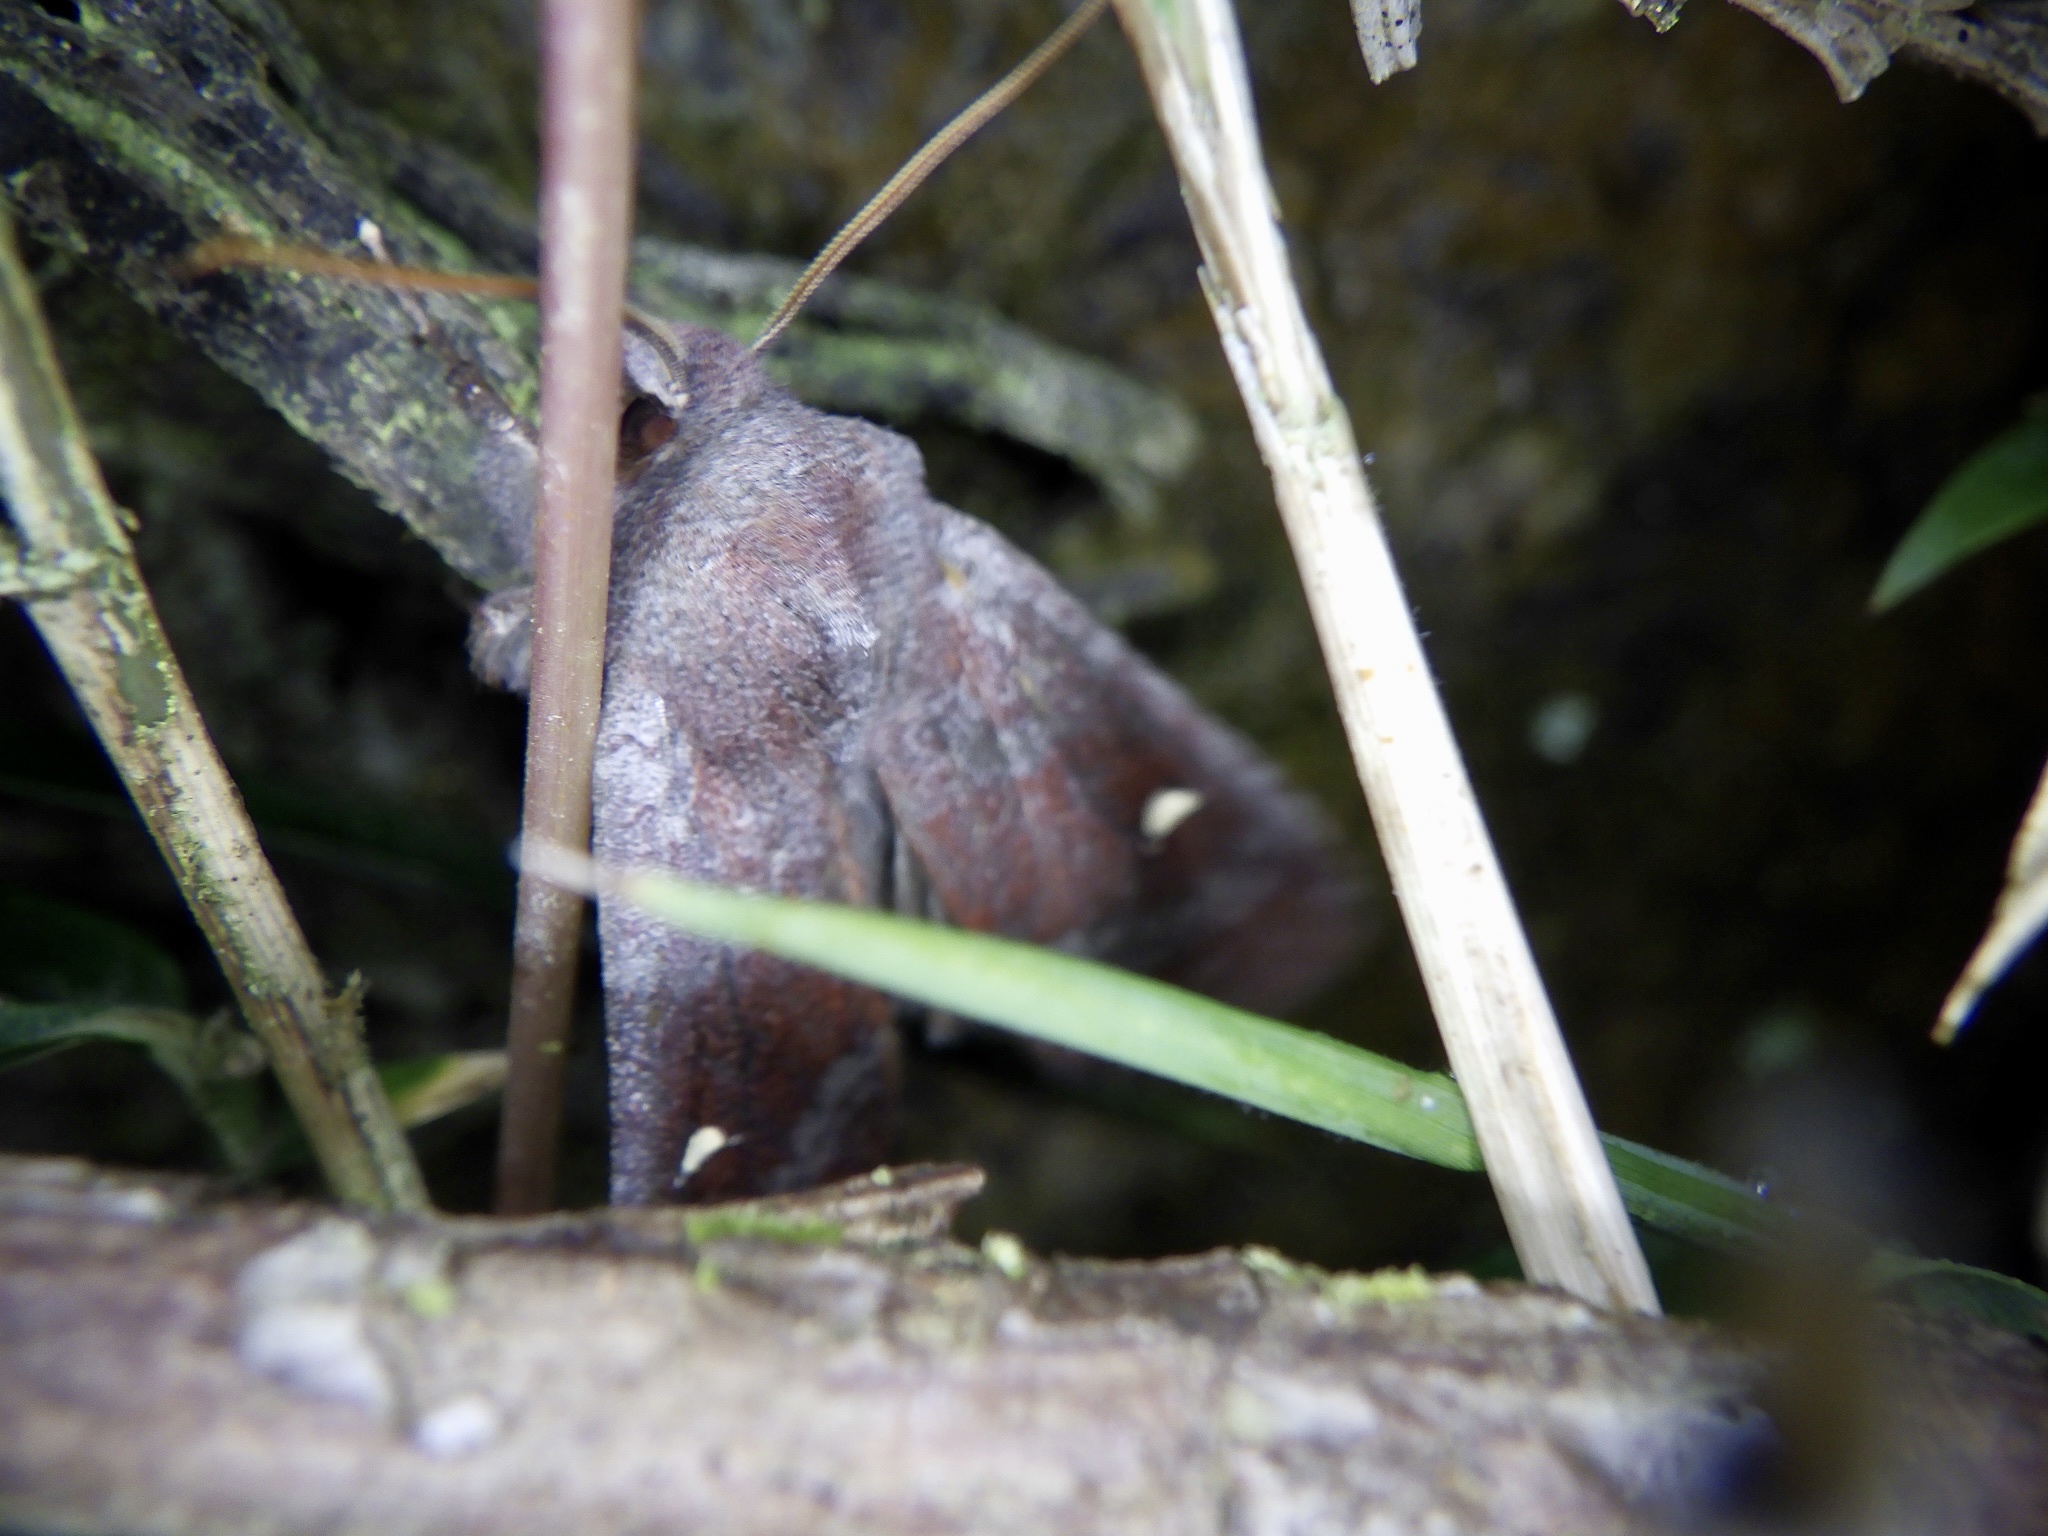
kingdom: Animalia
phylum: Arthropoda
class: Insecta
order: Lepidoptera
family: Noctuidae
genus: Eupsilia
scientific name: Eupsilia unipuncta
